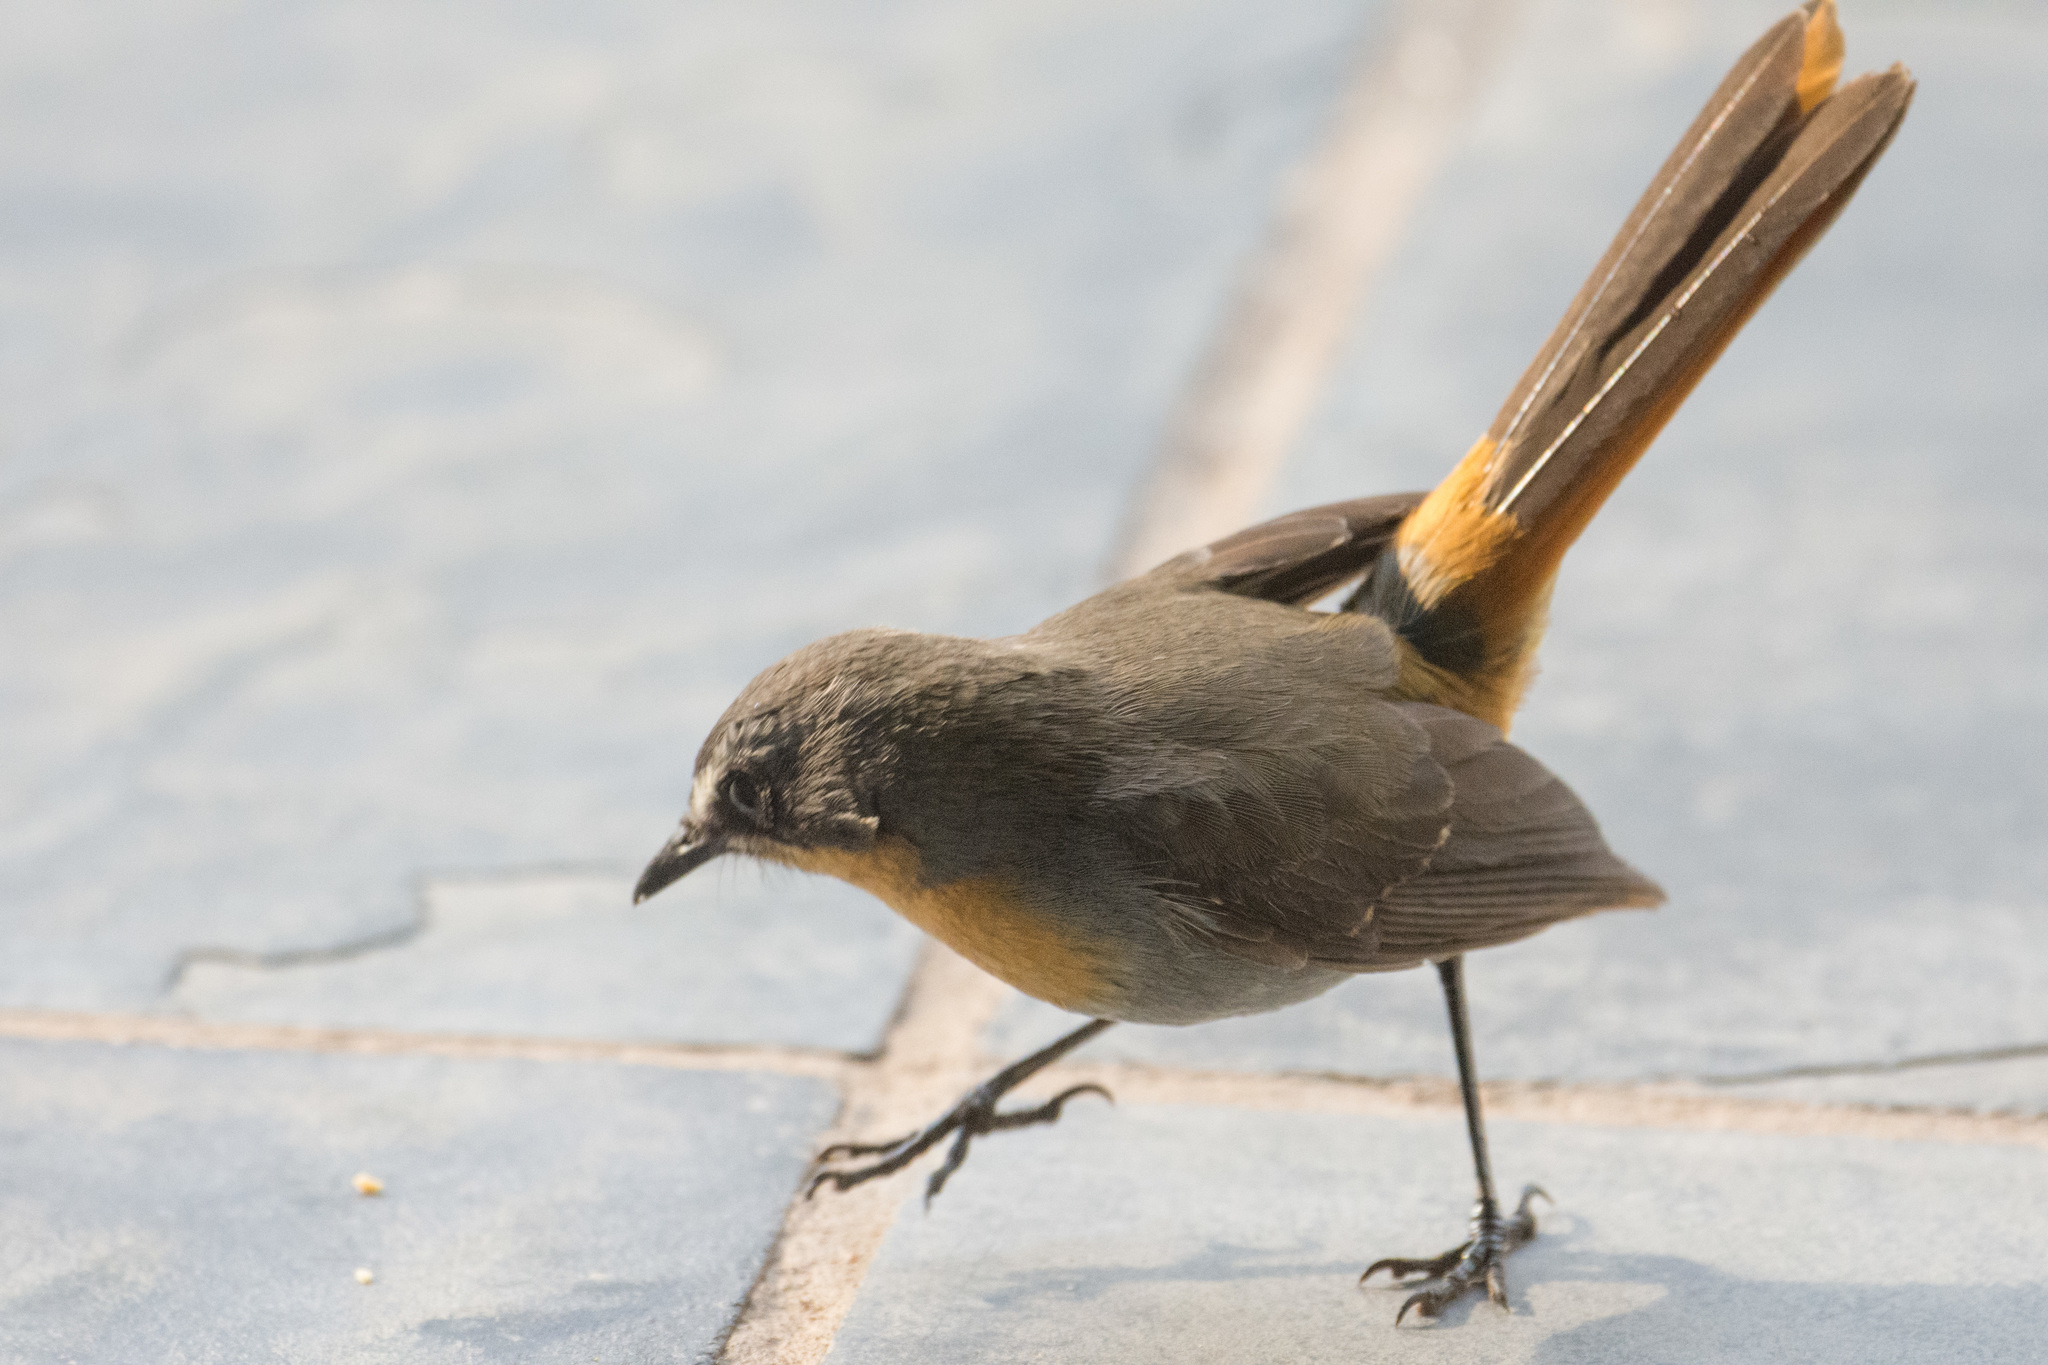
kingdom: Animalia
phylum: Chordata
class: Aves
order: Passeriformes
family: Muscicapidae
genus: Cossypha
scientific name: Cossypha caffra
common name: Cape robin-chat
